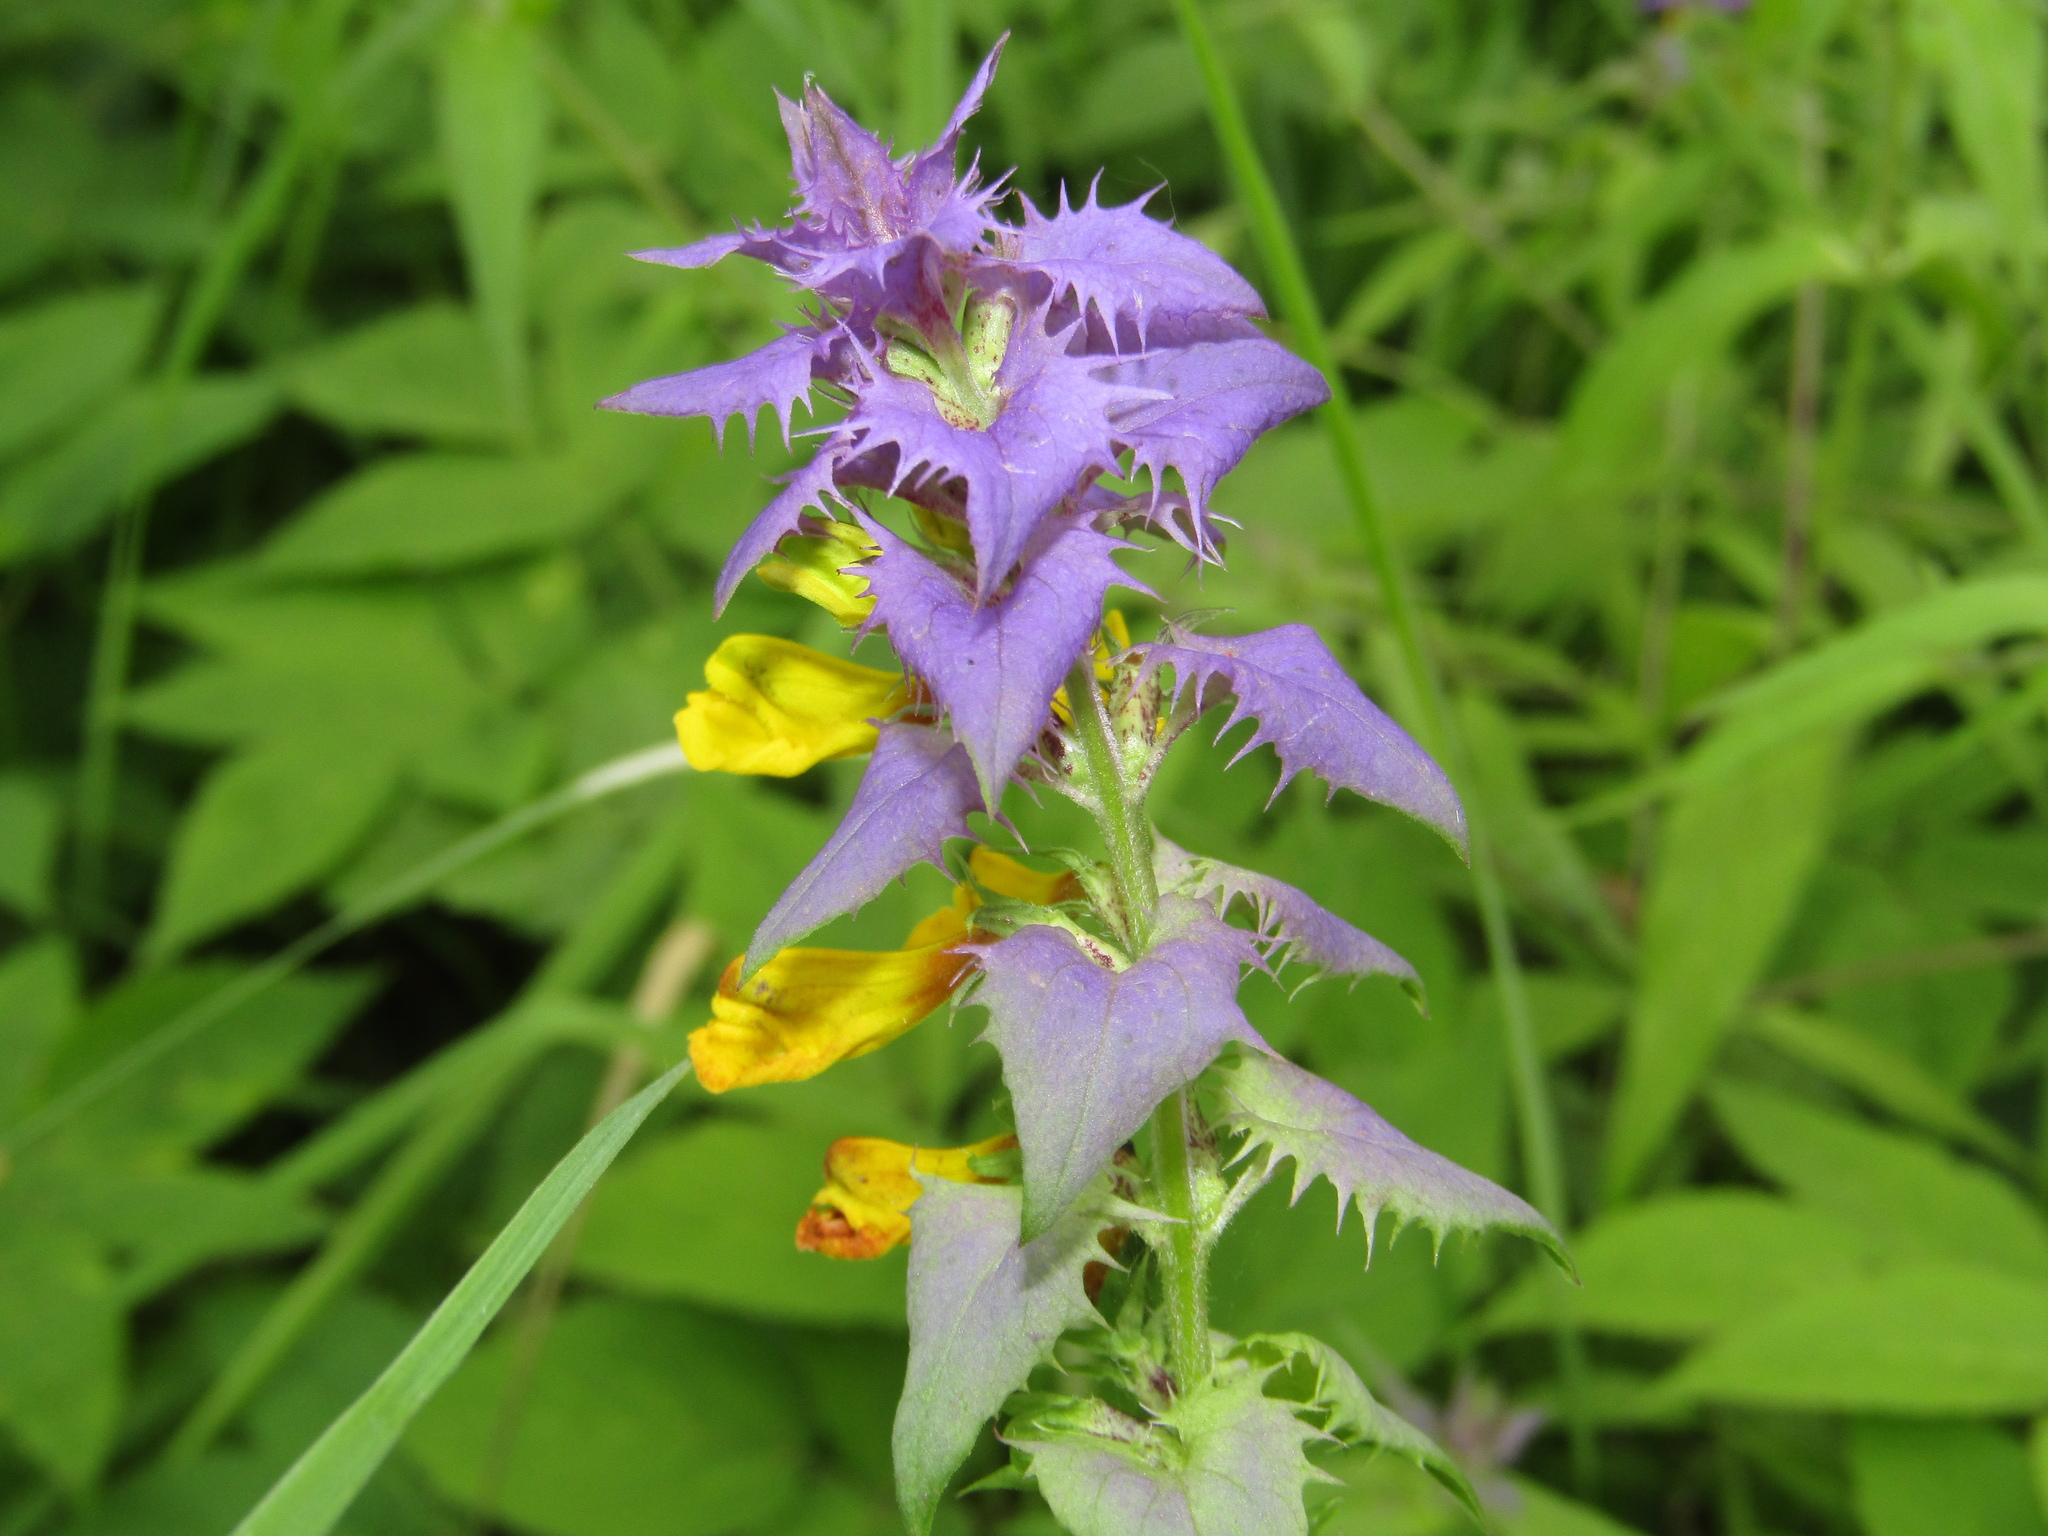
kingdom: Plantae
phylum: Tracheophyta
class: Magnoliopsida
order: Lamiales
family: Orobanchaceae
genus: Melampyrum
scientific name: Melampyrum nemorosum
